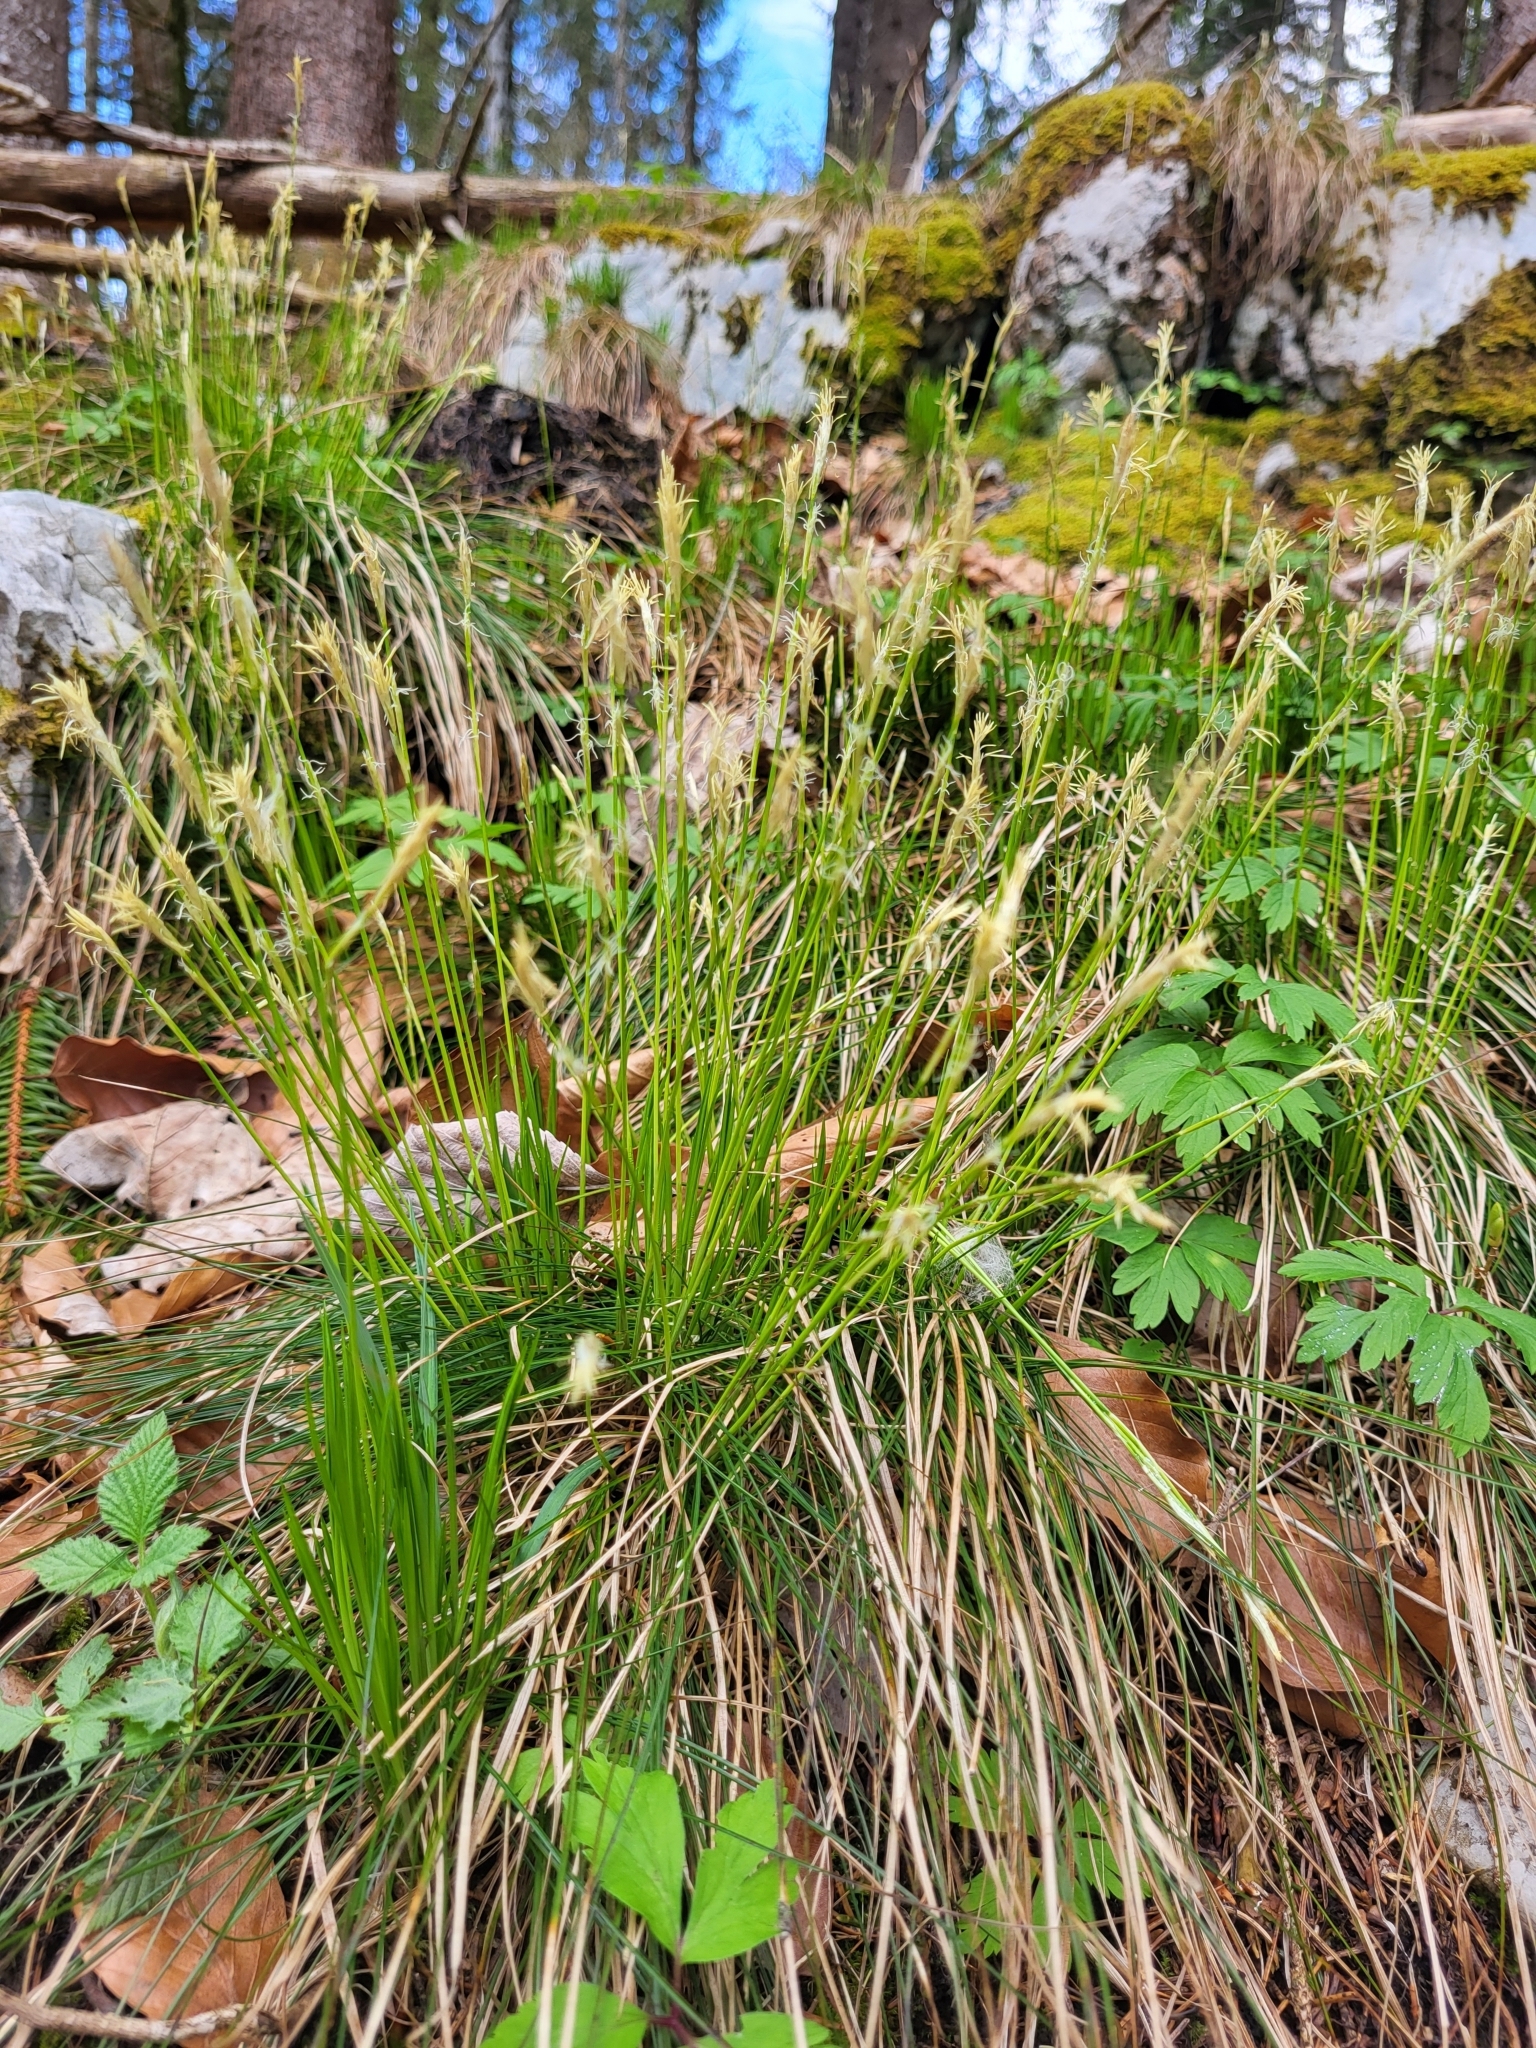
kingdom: Plantae
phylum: Tracheophyta
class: Liliopsida
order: Poales
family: Cyperaceae
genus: Carex
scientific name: Carex alba
